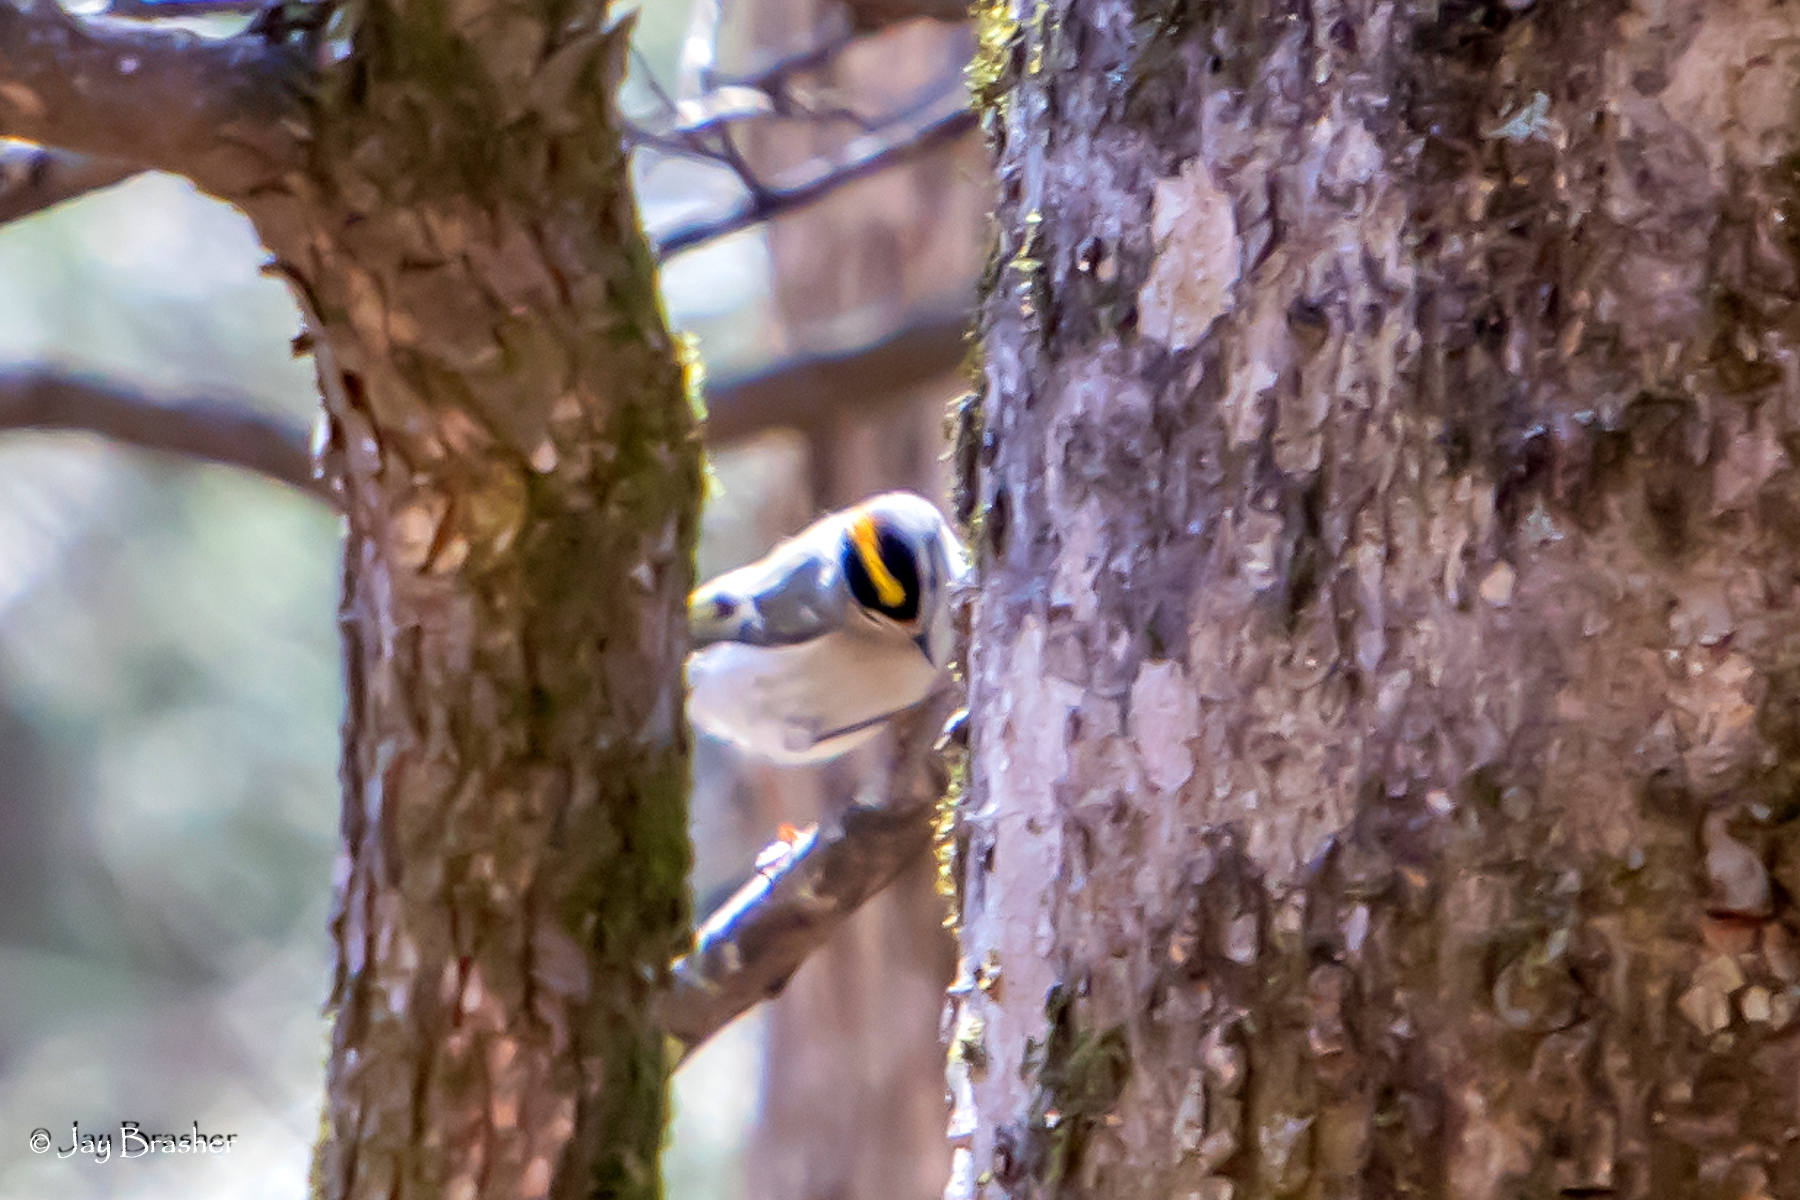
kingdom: Animalia
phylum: Chordata
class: Aves
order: Passeriformes
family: Regulidae
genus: Regulus
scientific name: Regulus satrapa
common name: Golden-crowned kinglet
